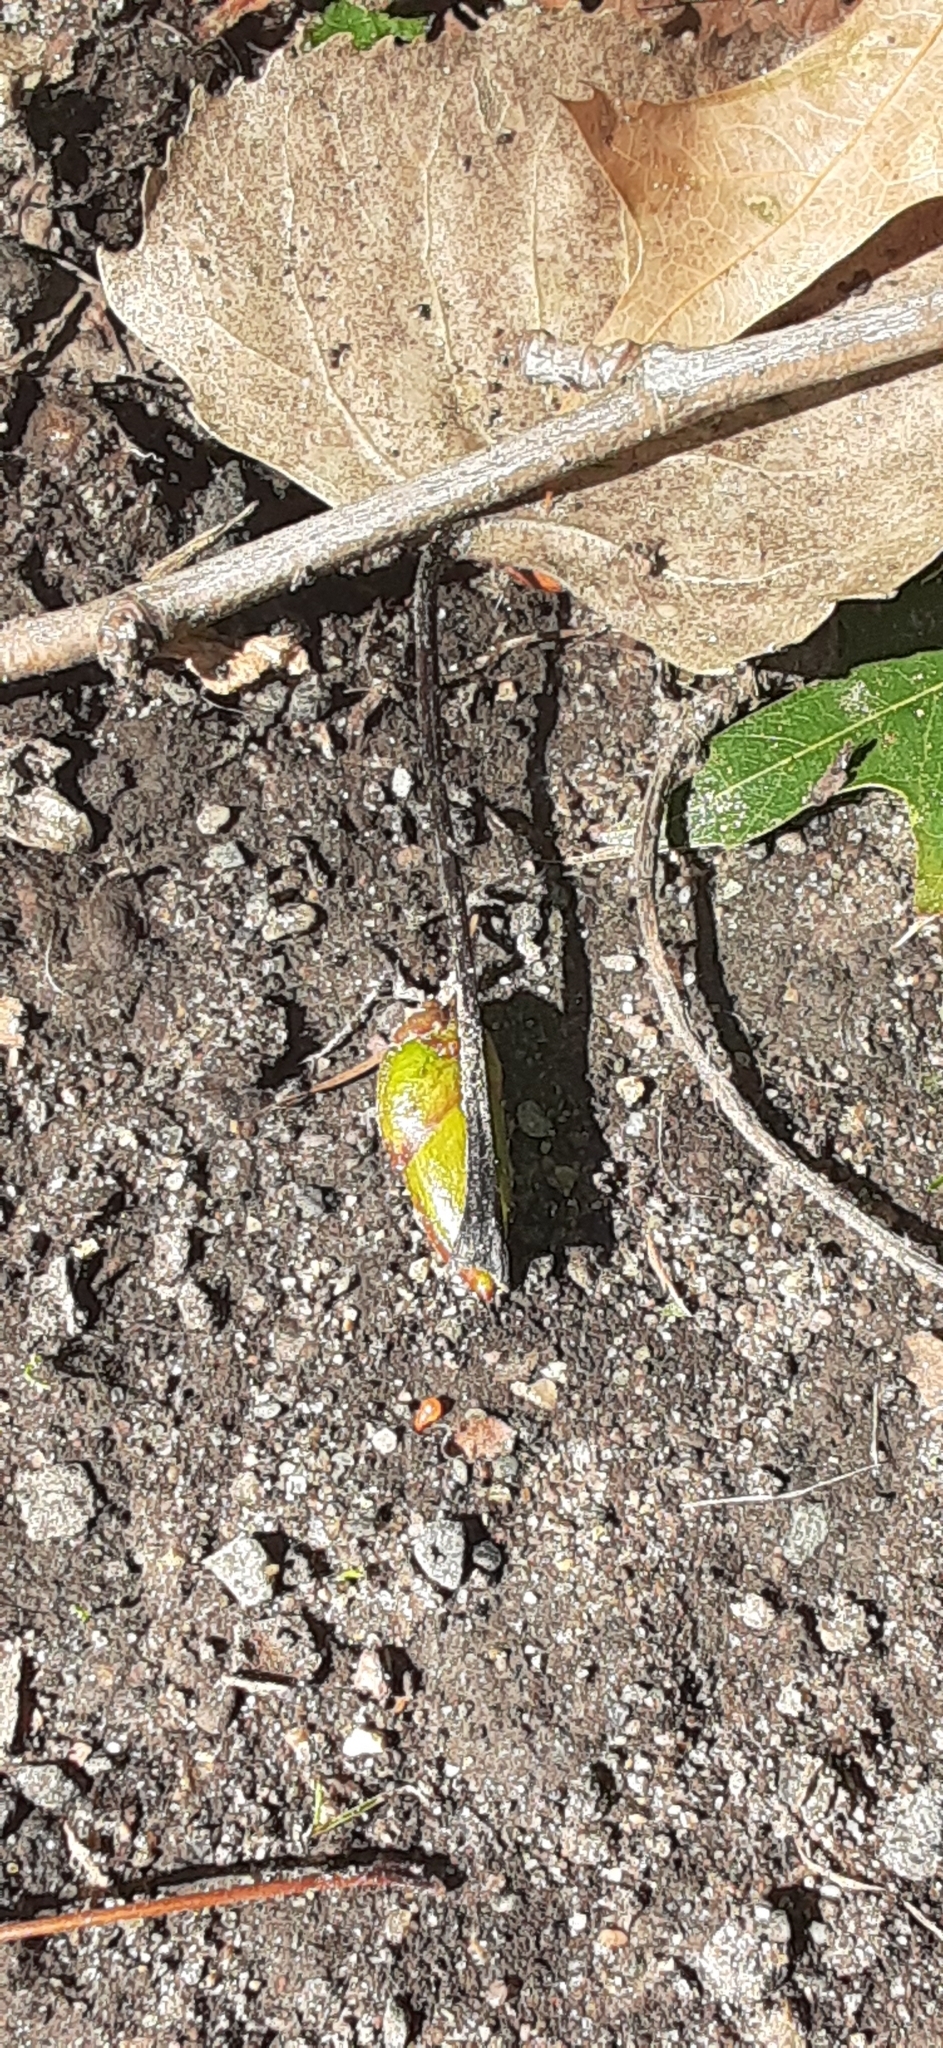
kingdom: Plantae
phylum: Tracheophyta
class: Magnoliopsida
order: Malpighiales
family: Salicaceae
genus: Populus
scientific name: Populus deltoides
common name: Eastern cottonwood
